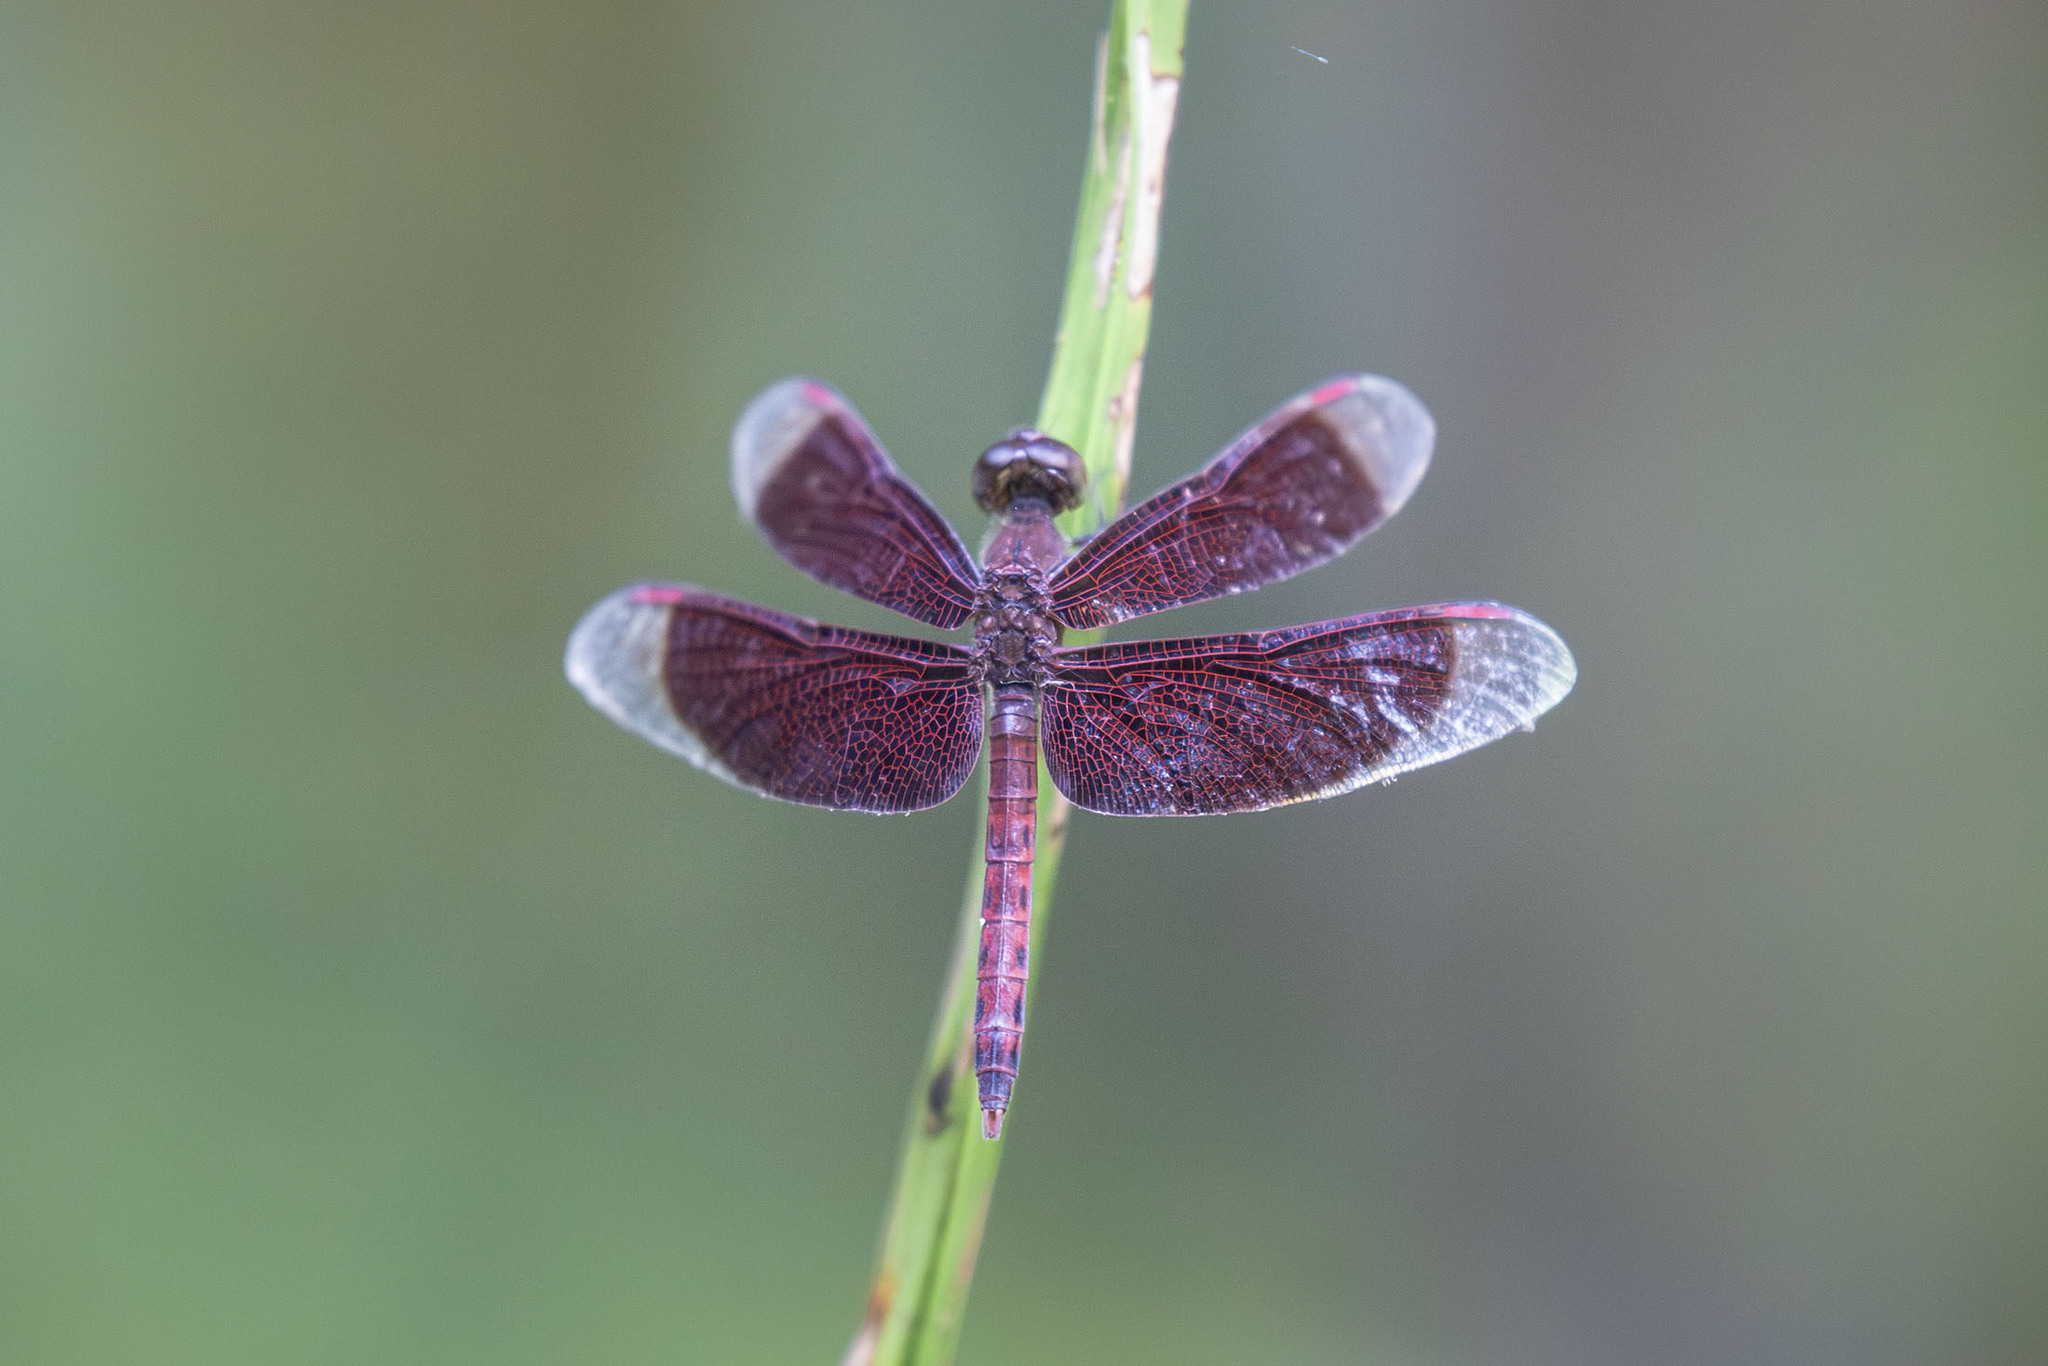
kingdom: Animalia
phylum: Arthropoda
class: Insecta
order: Odonata
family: Libellulidae
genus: Neurothemis
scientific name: Neurothemis fluctuans
